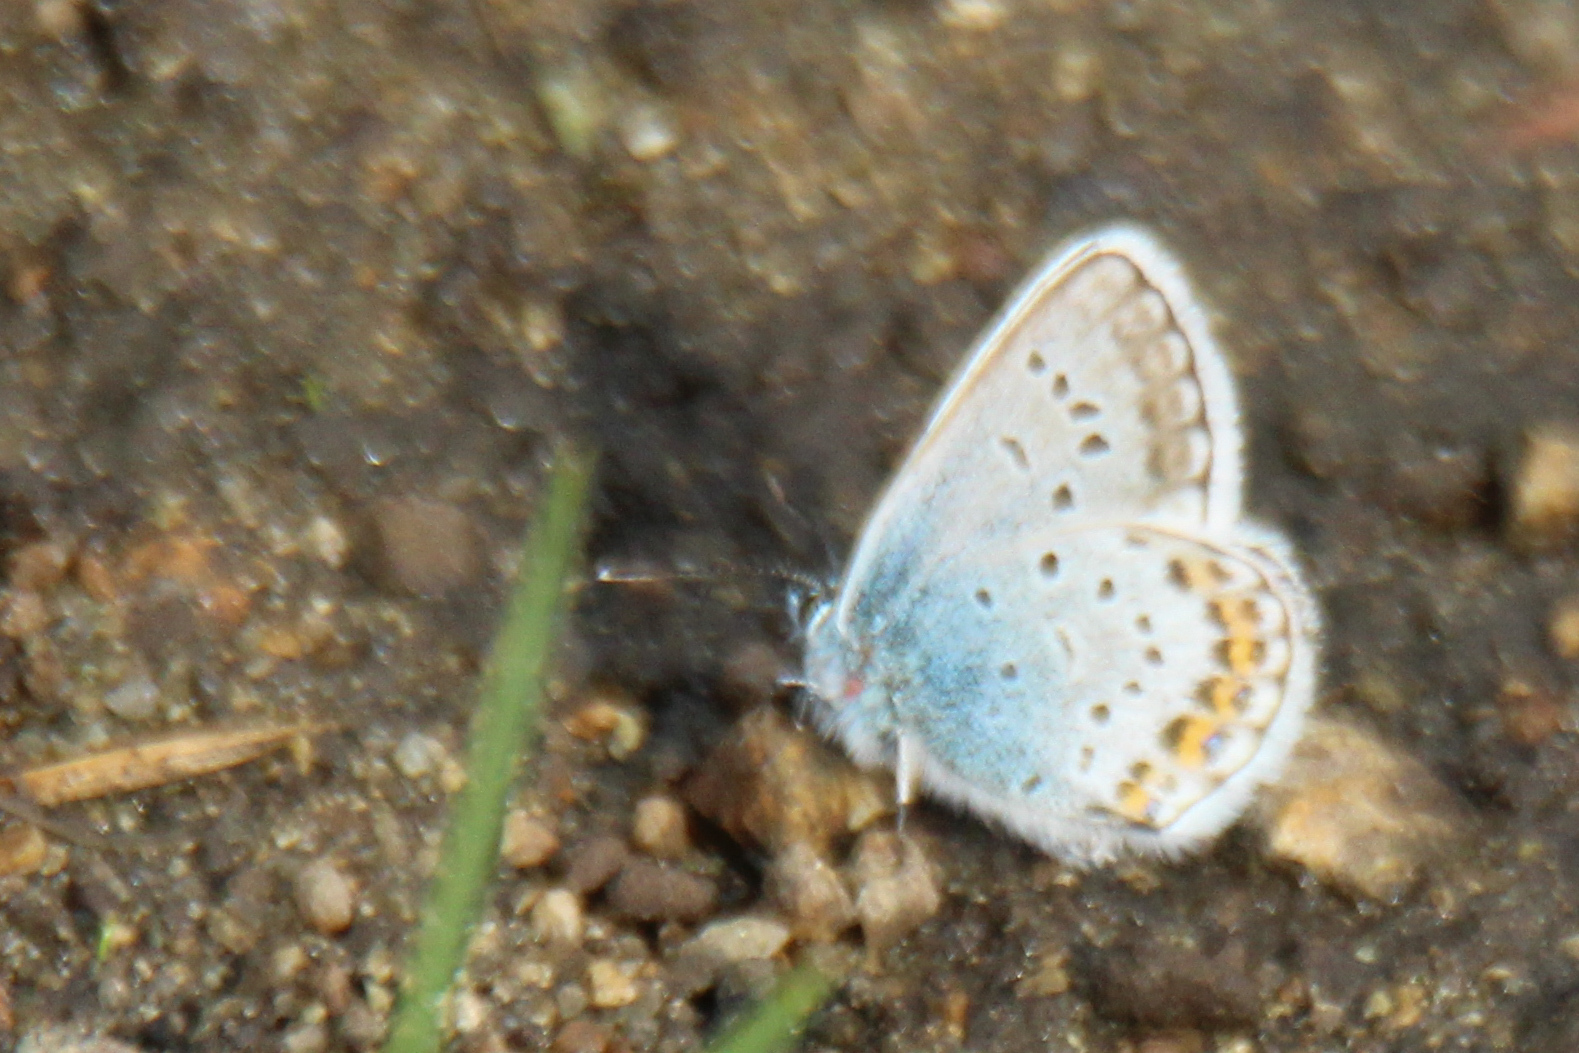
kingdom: Animalia
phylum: Arthropoda
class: Insecta
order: Lepidoptera
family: Lycaenidae
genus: Plebejus
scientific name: Plebejus argus
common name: Silver-studded blue
